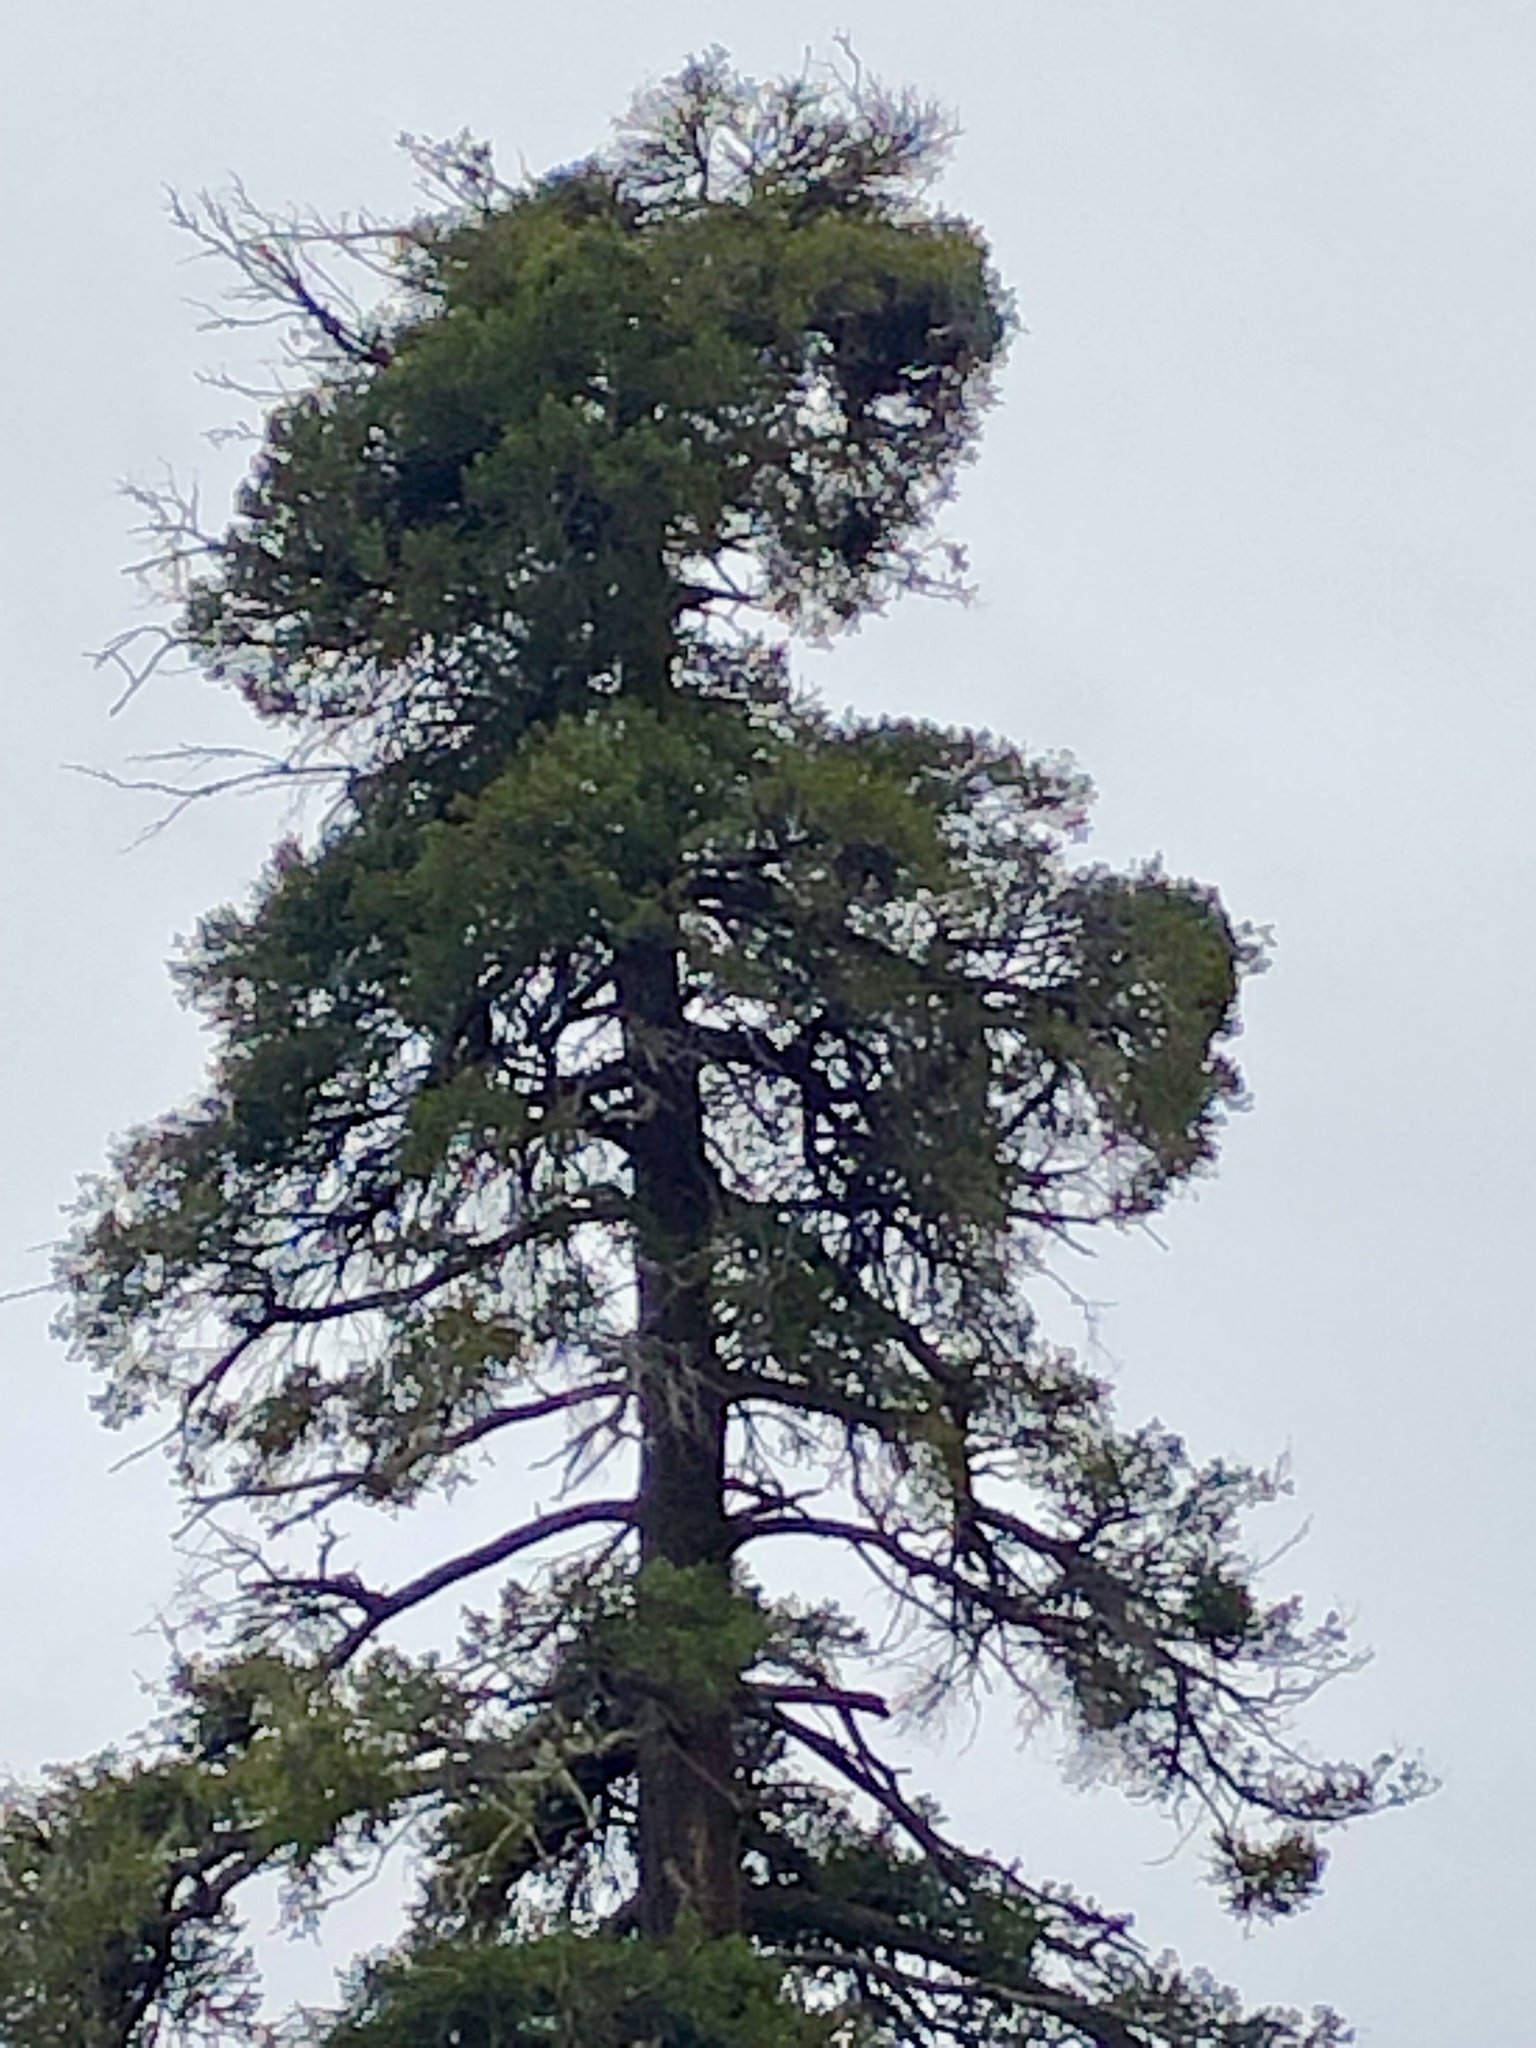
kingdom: Plantae
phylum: Tracheophyta
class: Pinopsida
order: Pinales
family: Pinaceae
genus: Pseudotsuga
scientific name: Pseudotsuga menziesii
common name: Douglas fir
